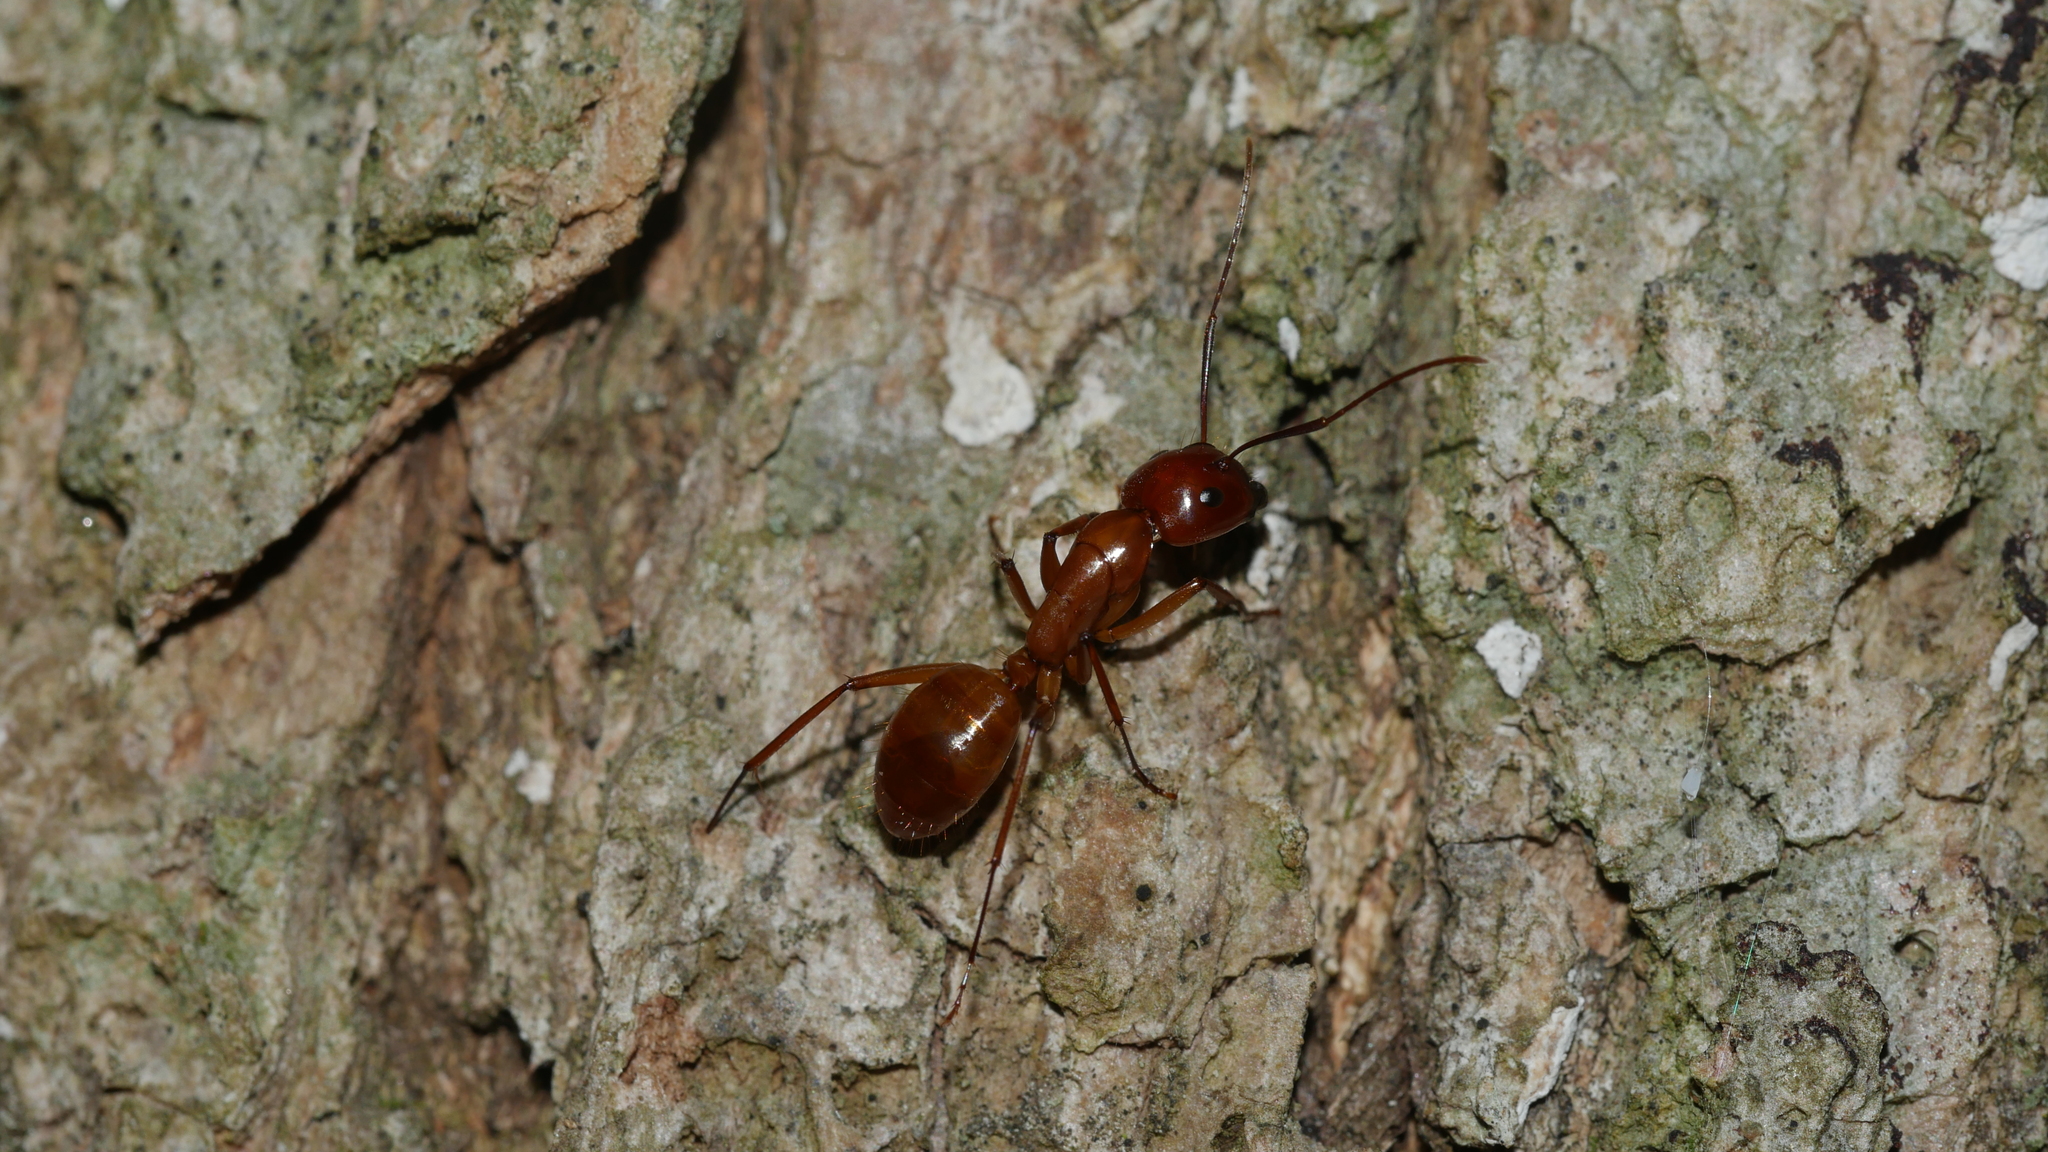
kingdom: Animalia
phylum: Arthropoda
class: Insecta
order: Hymenoptera
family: Formicidae
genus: Camponotus
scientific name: Camponotus castaneus
